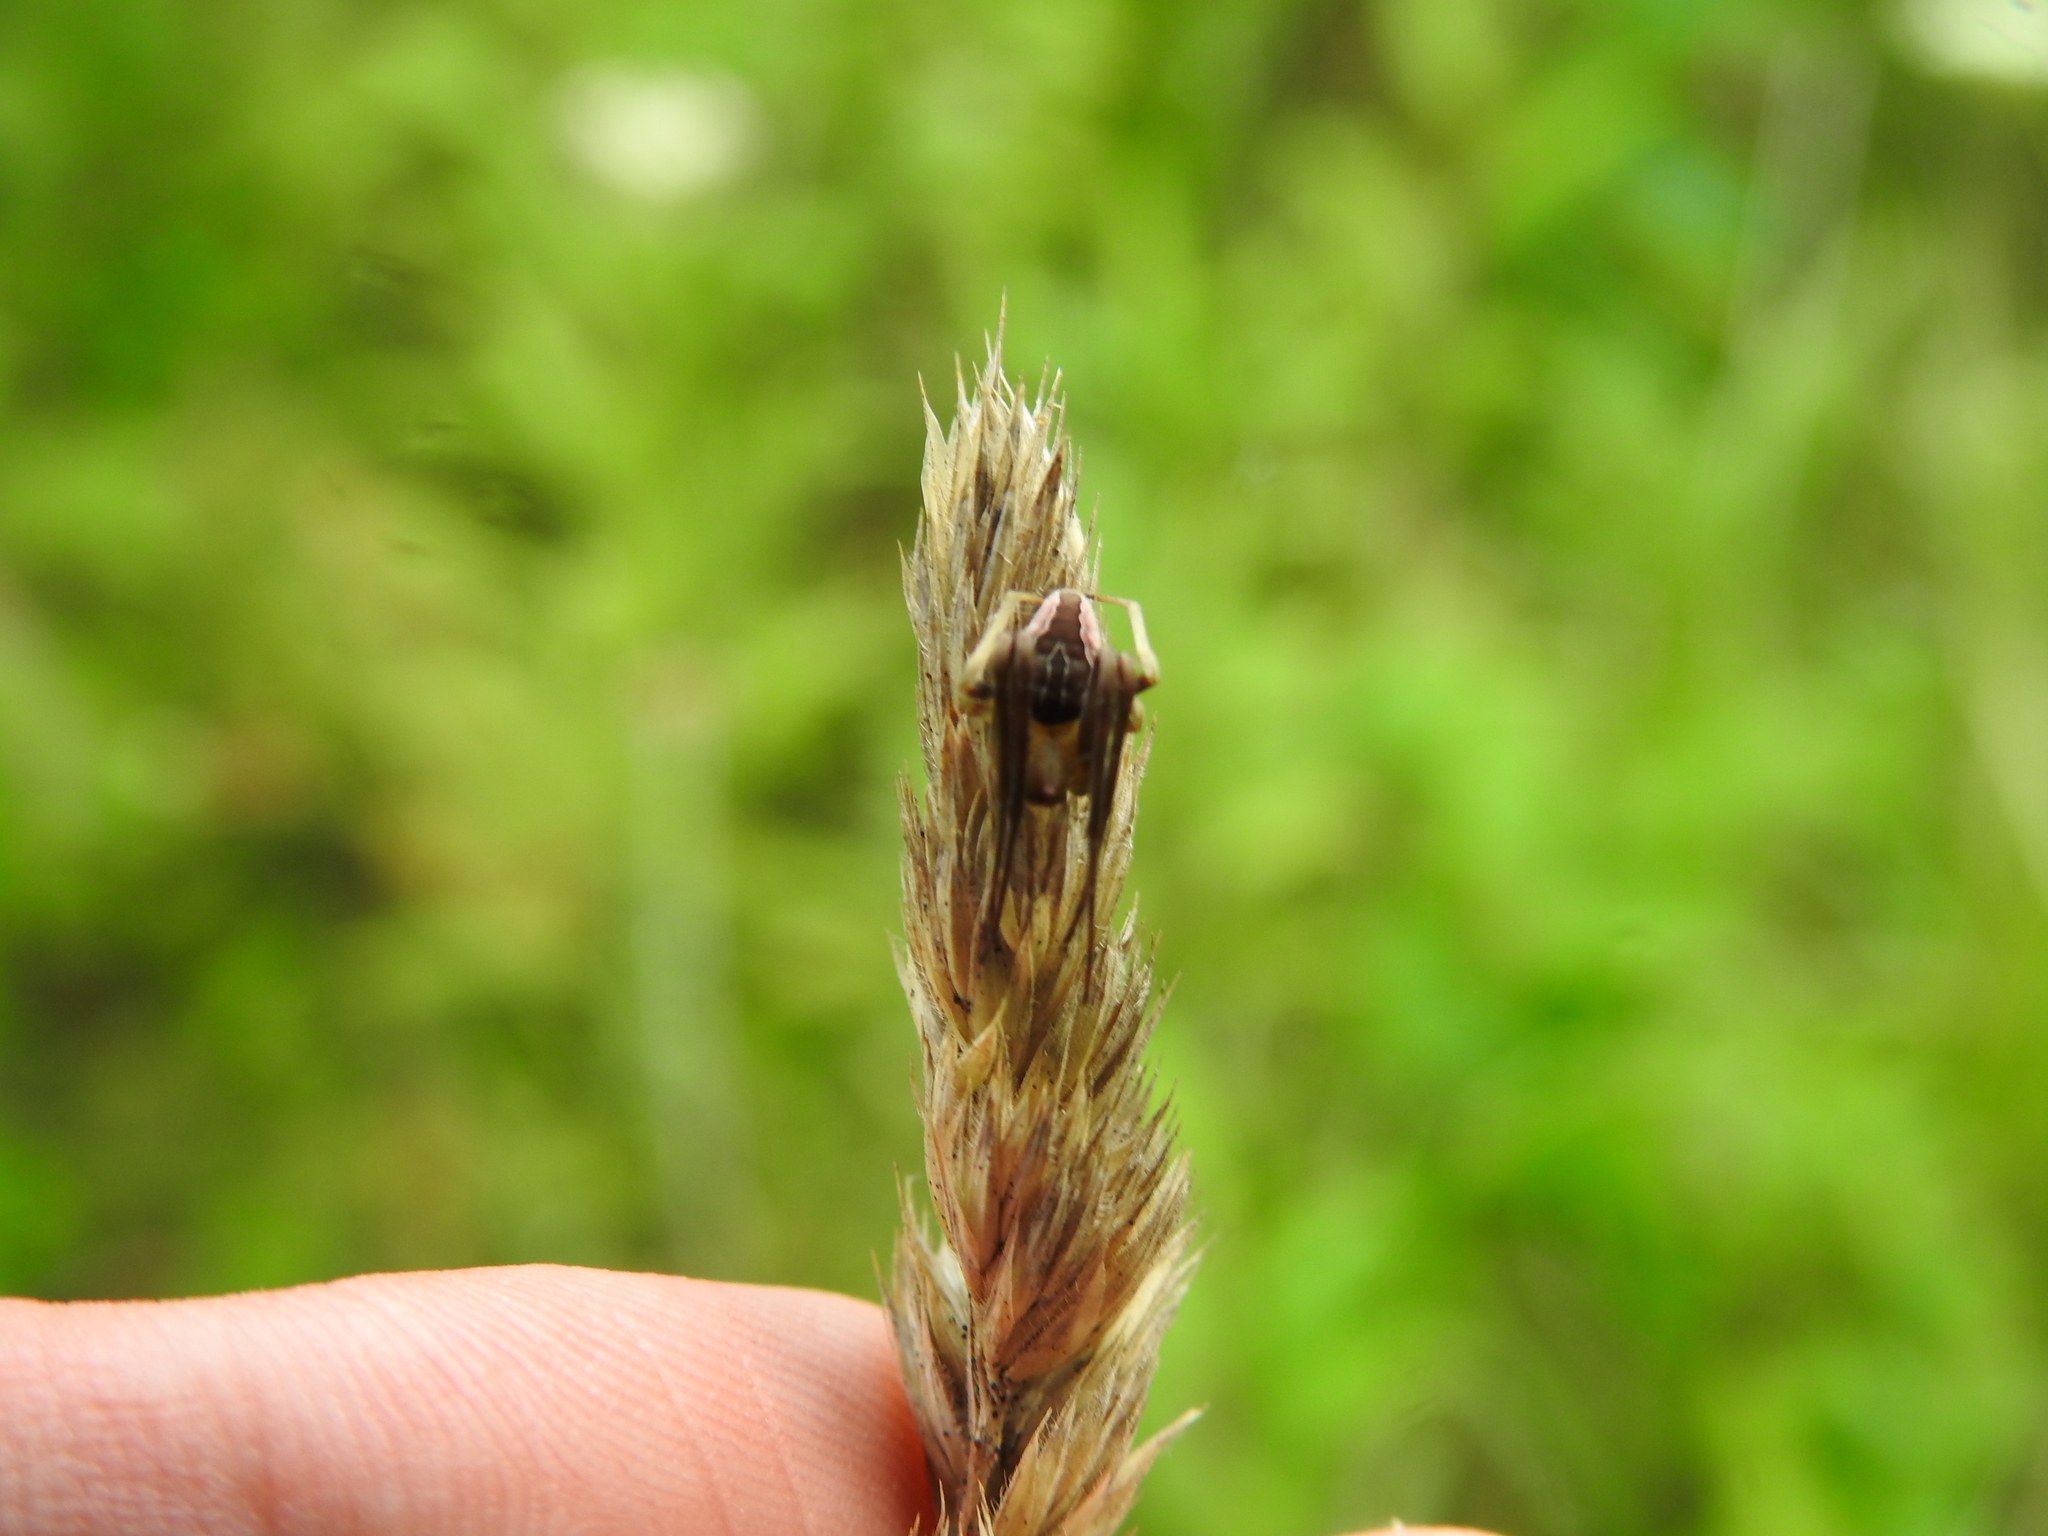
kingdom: Animalia
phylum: Arthropoda
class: Arachnida
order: Araneae
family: Araneidae
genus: Acacesia
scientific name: Acacesia hamata
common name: Orb weavers
